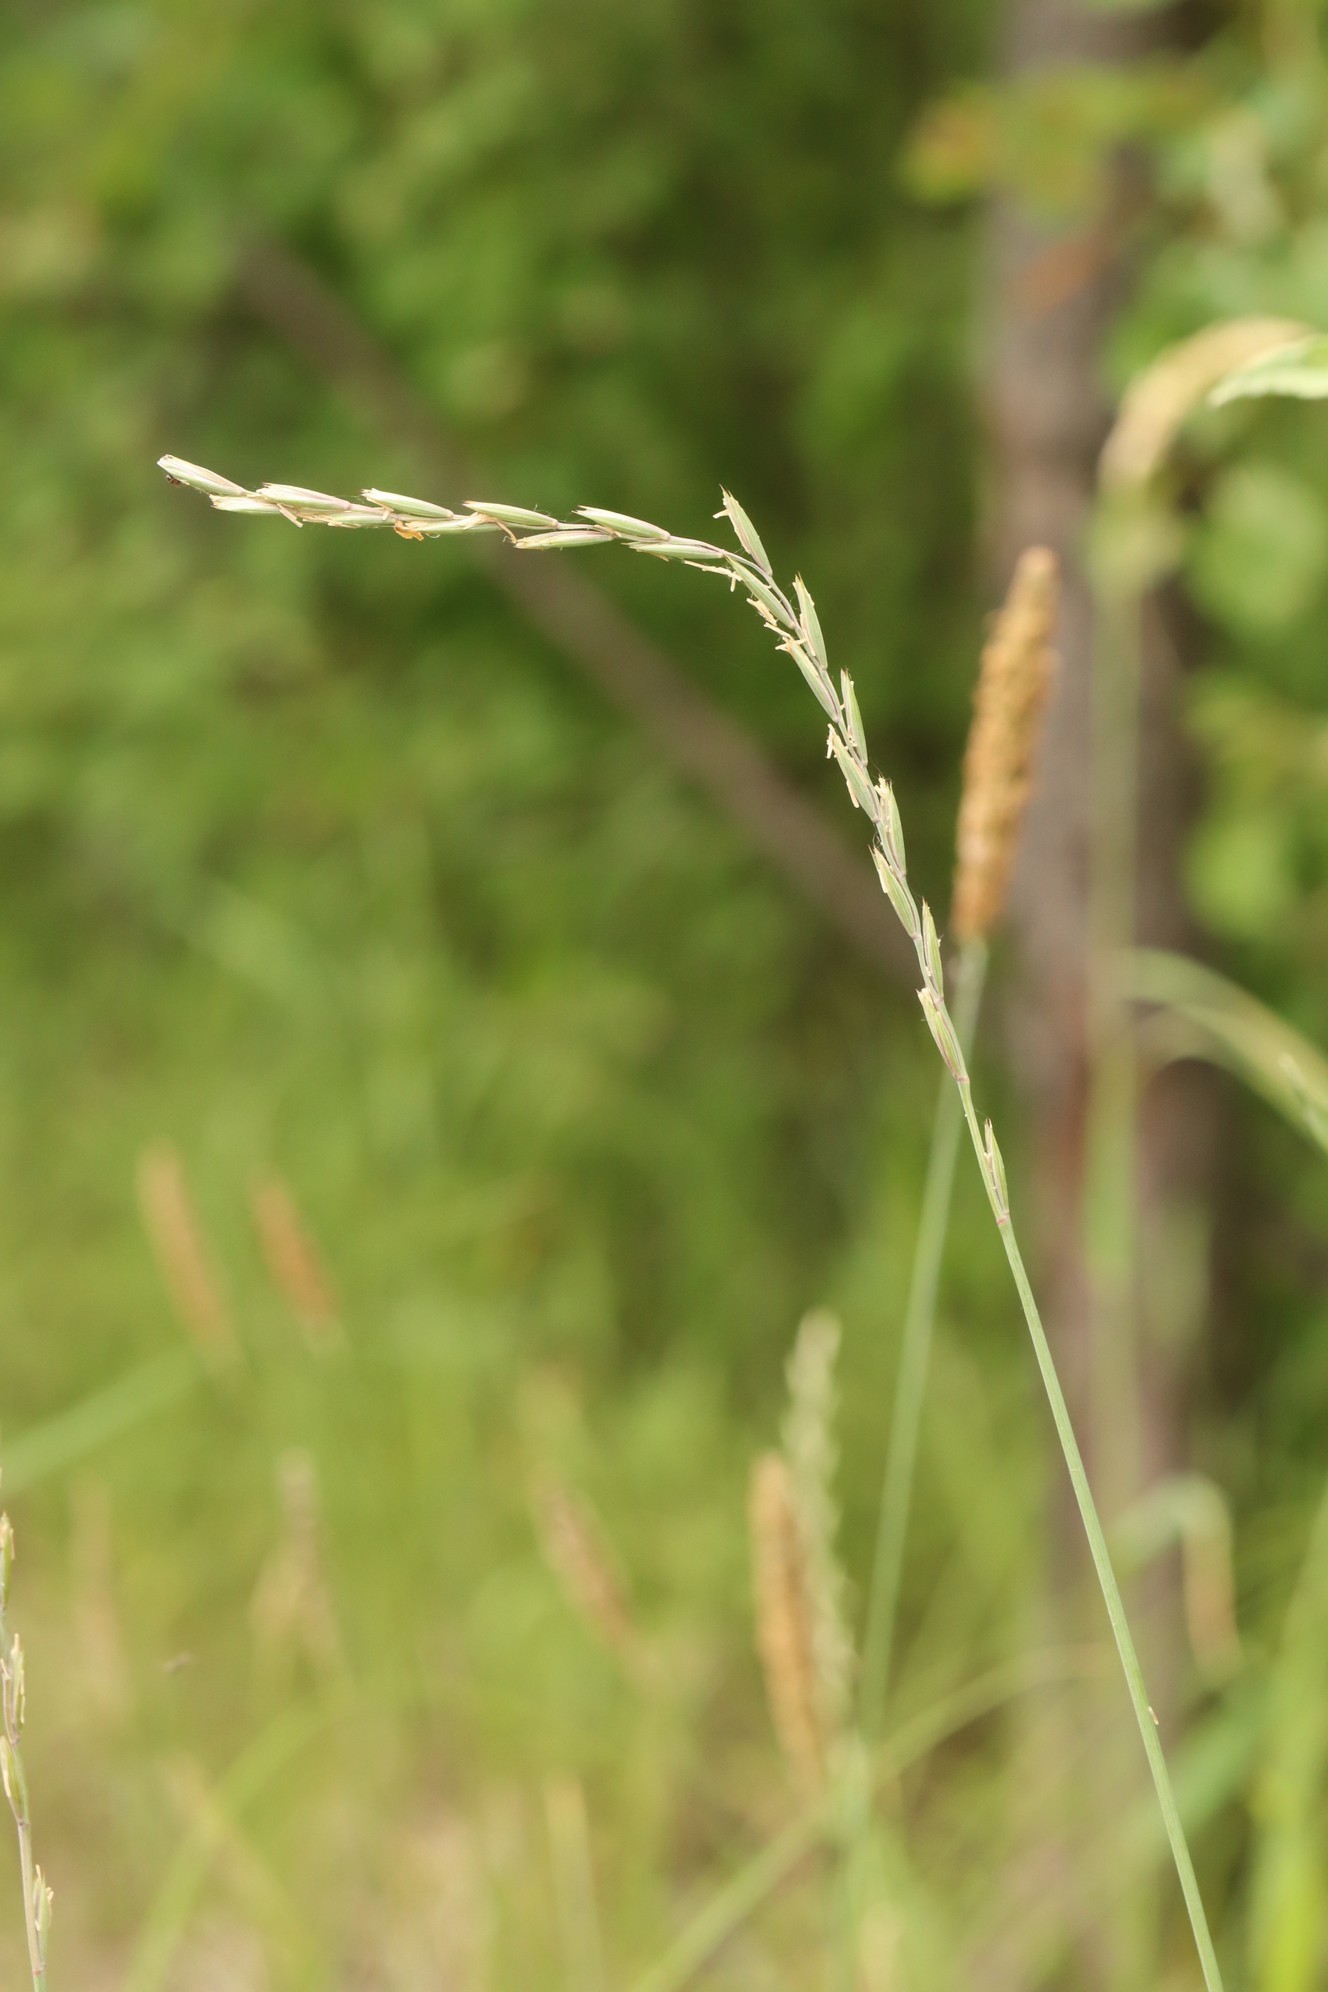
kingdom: Plantae
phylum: Tracheophyta
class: Liliopsida
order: Poales
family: Poaceae
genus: Elymus
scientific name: Elymus repens
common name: Quackgrass
